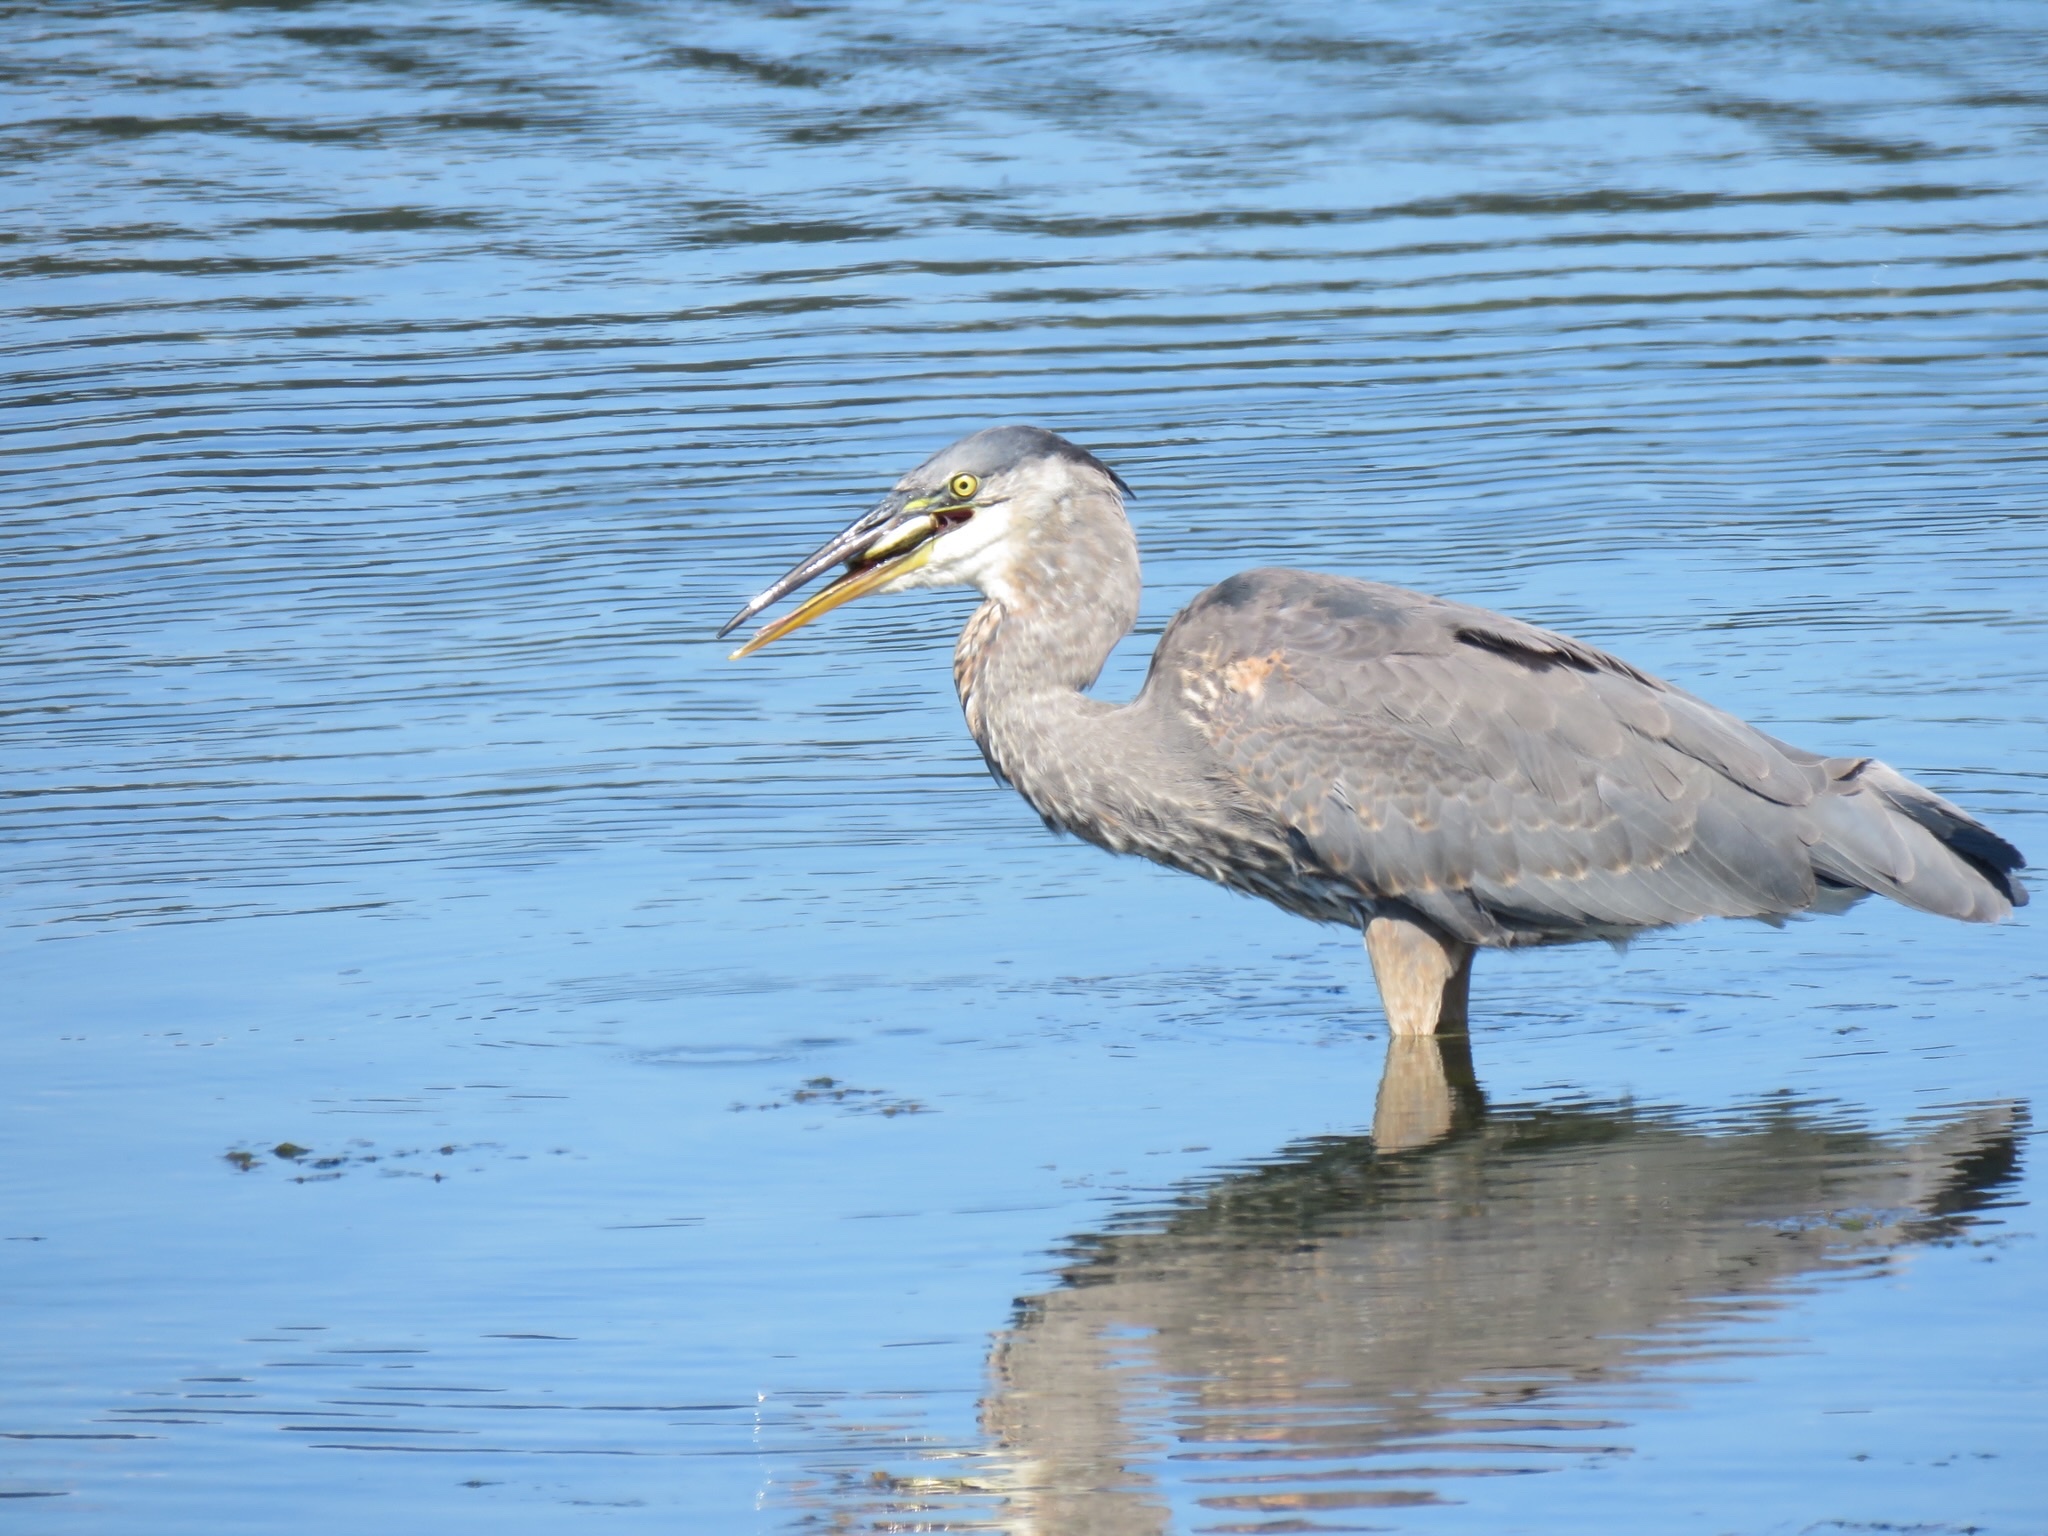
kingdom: Animalia
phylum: Chordata
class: Aves
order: Pelecaniformes
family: Ardeidae
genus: Ardea
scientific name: Ardea herodias
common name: Great blue heron
